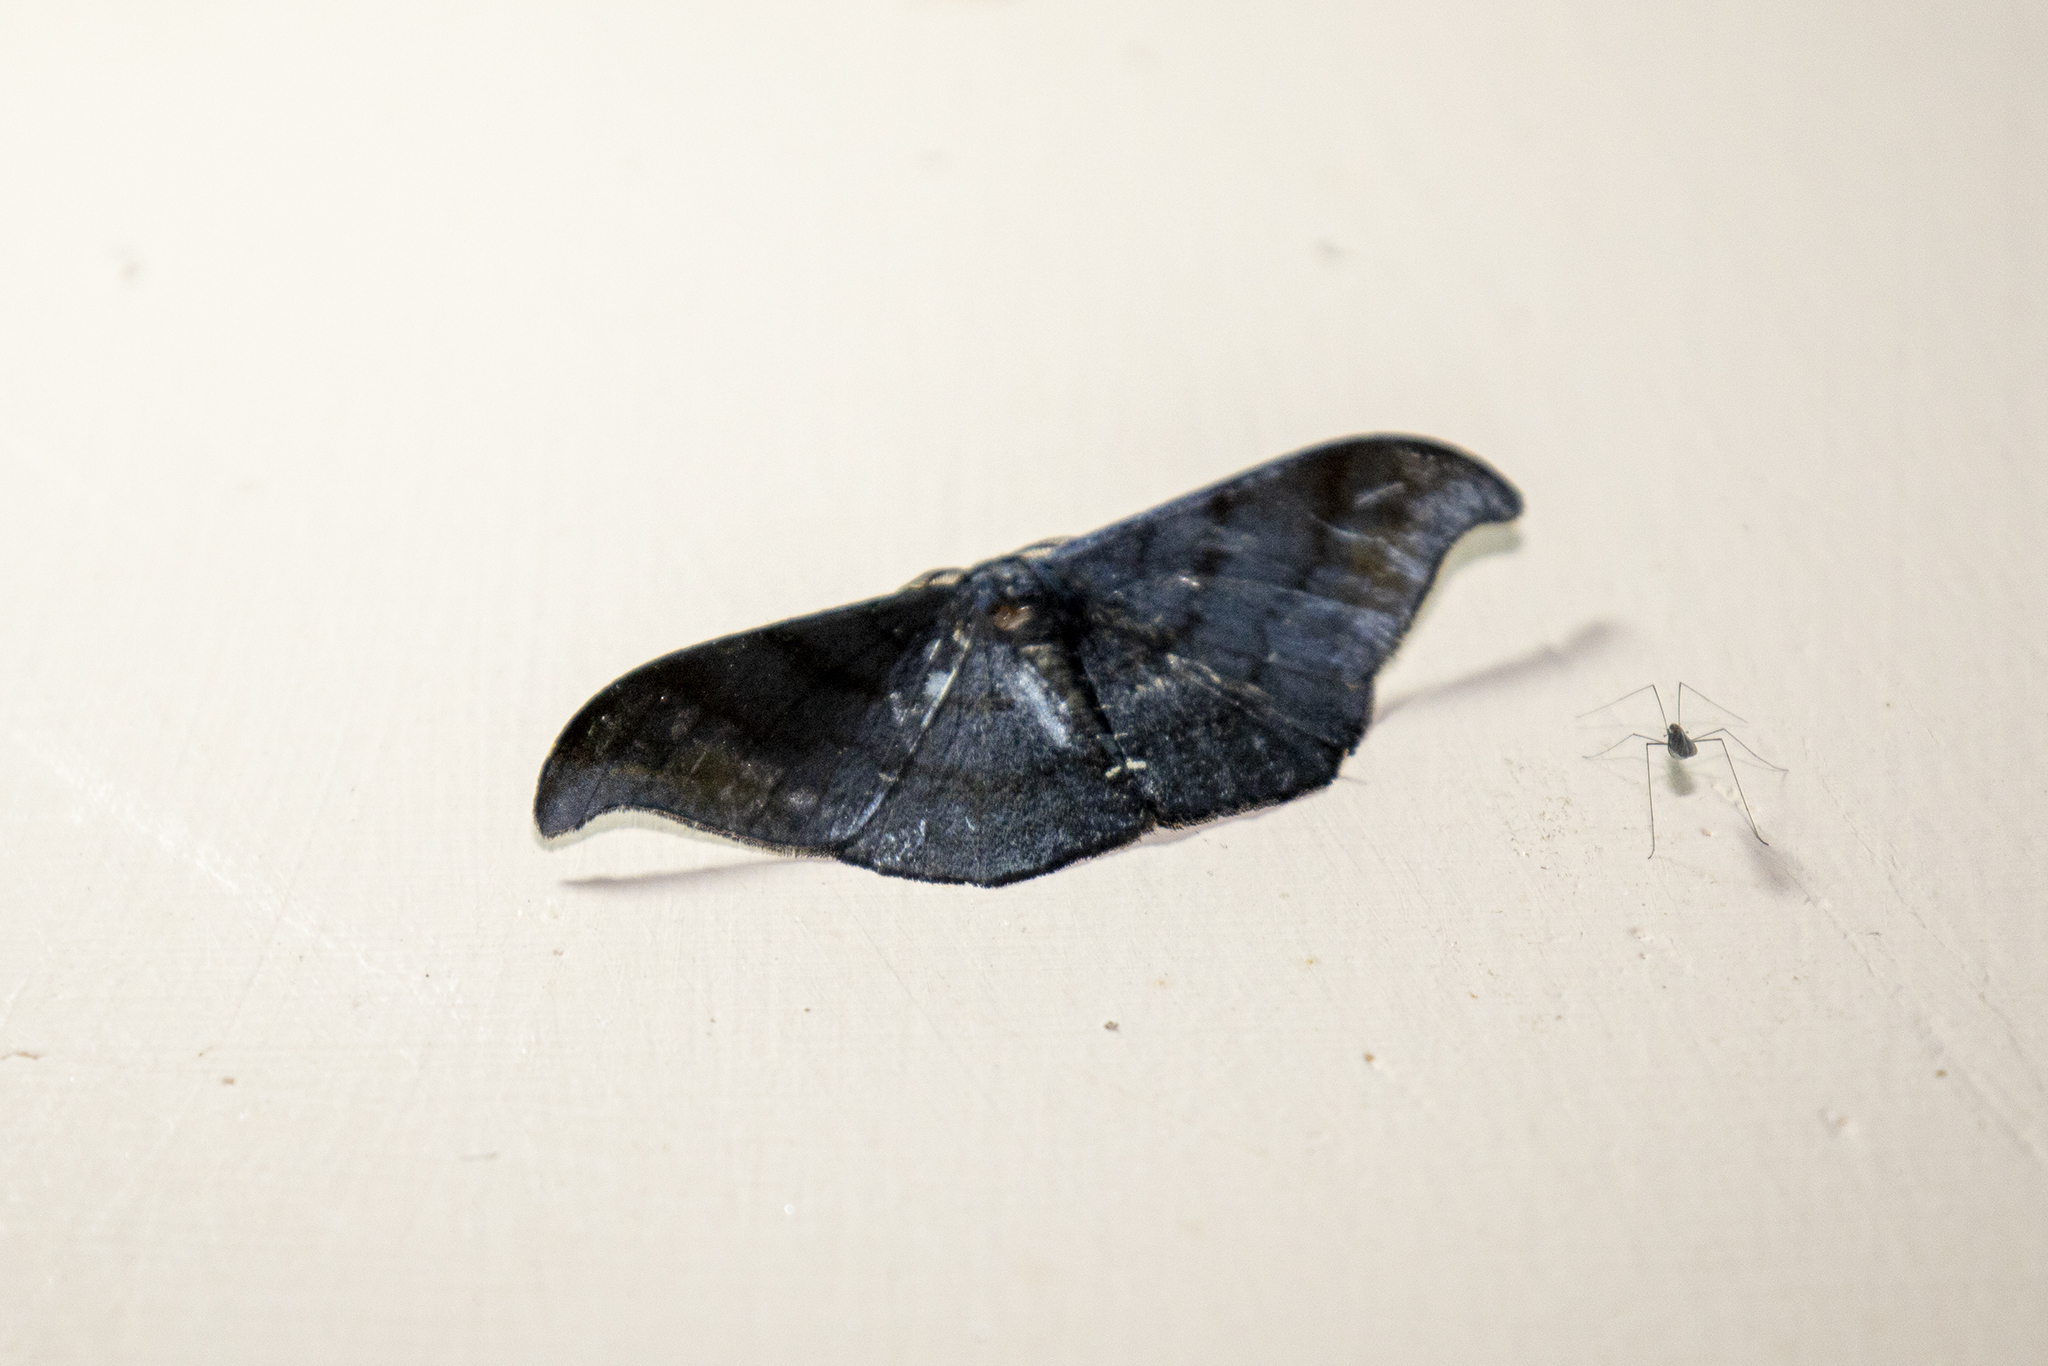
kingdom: Animalia
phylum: Arthropoda
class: Insecta
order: Lepidoptera
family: Geometridae
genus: Hyposidra
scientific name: Hyposidra aquilaria
